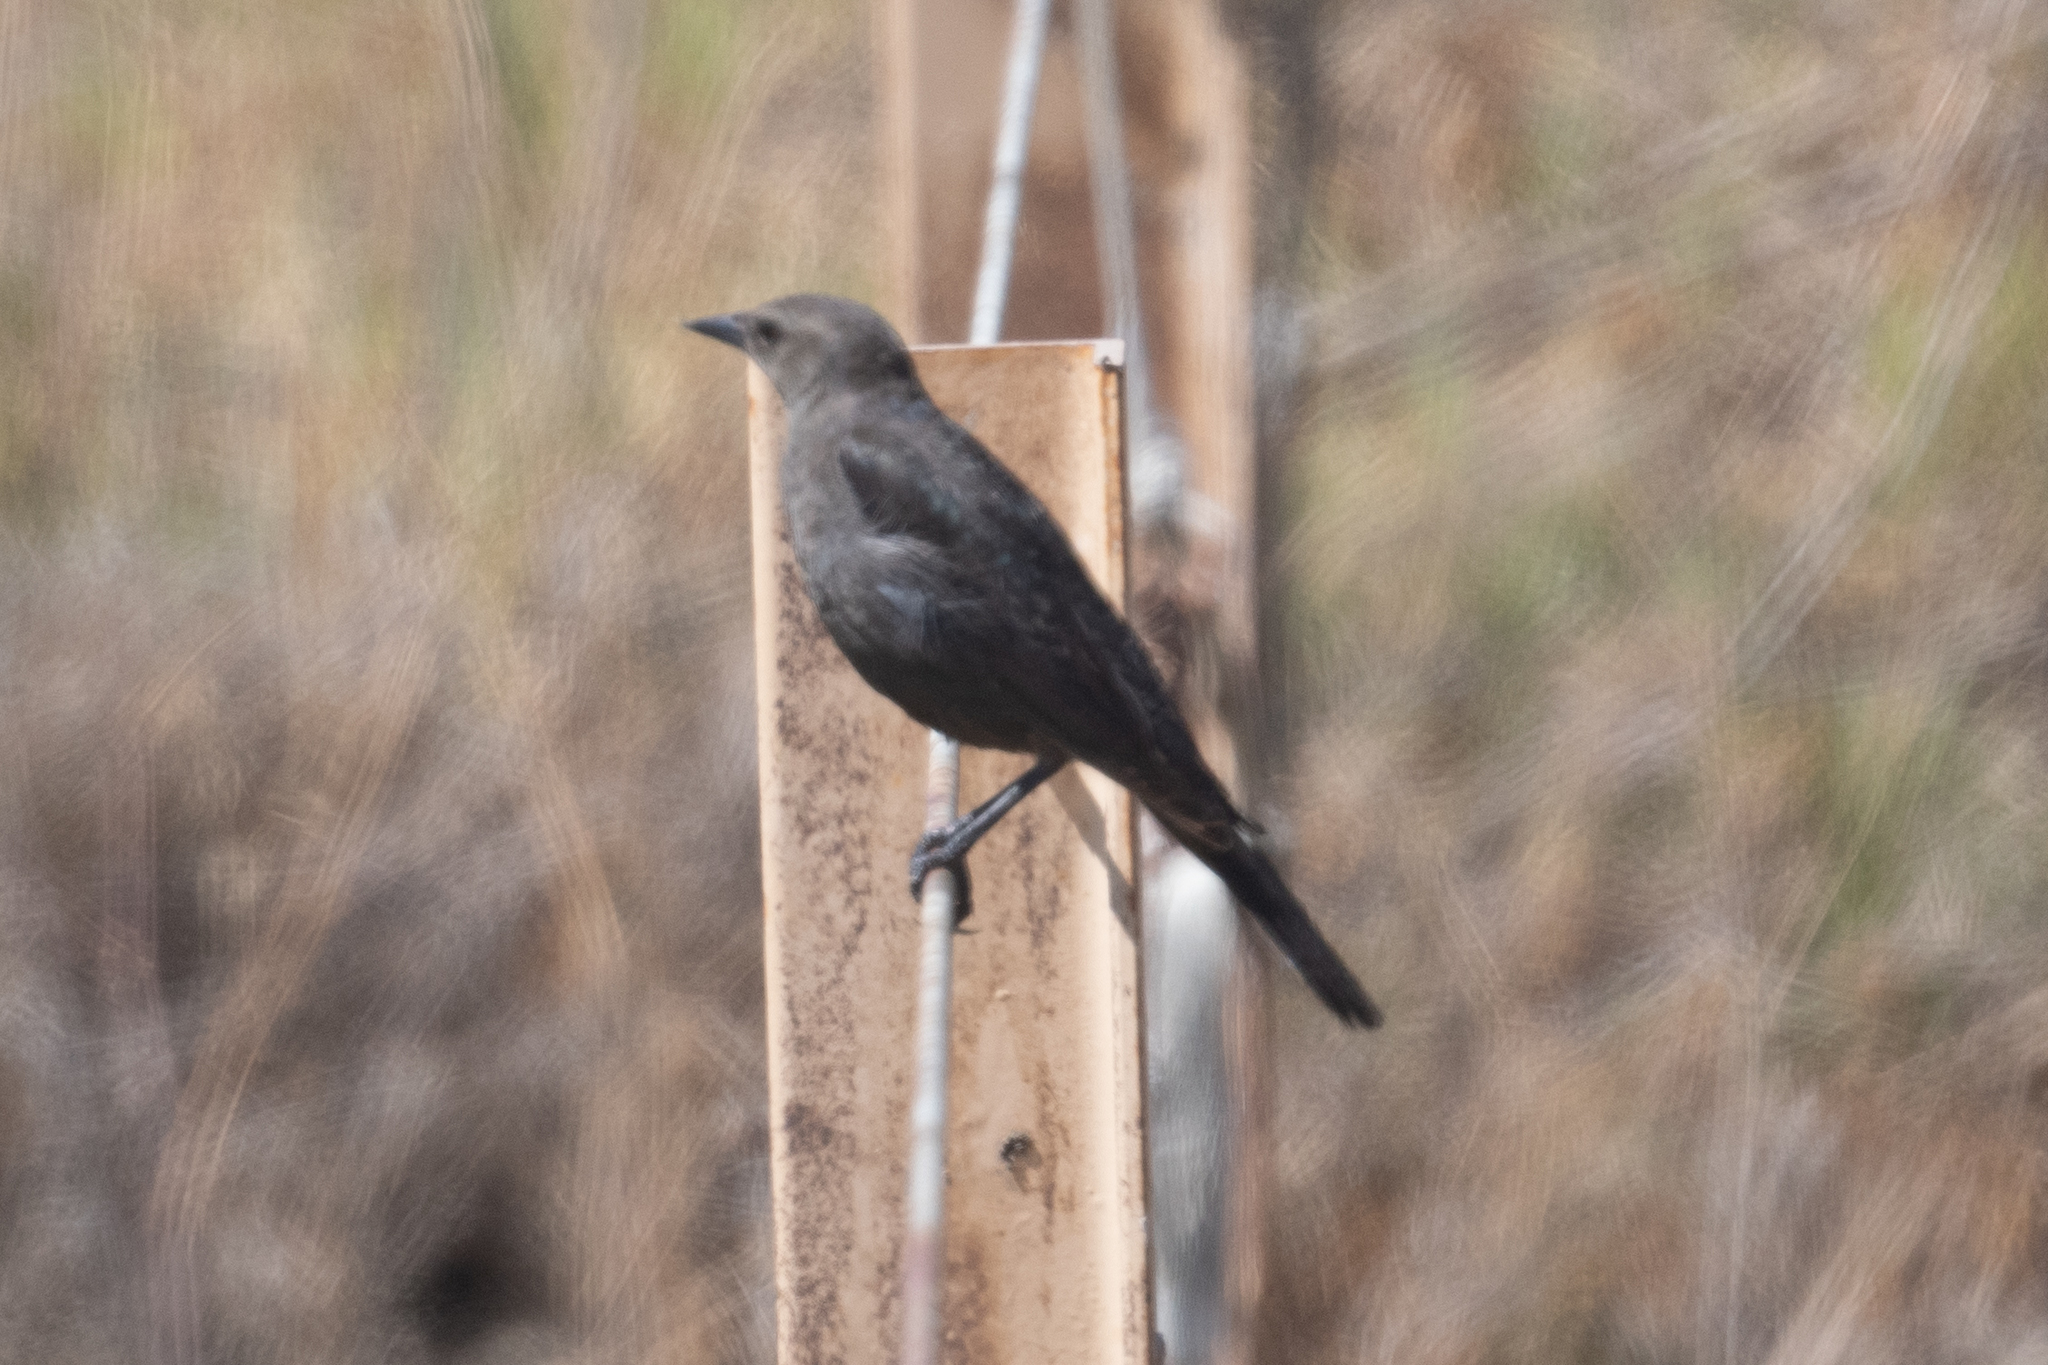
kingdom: Animalia
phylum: Chordata
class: Aves
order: Passeriformes
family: Icteridae
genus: Euphagus
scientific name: Euphagus cyanocephalus
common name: Brewer's blackbird
